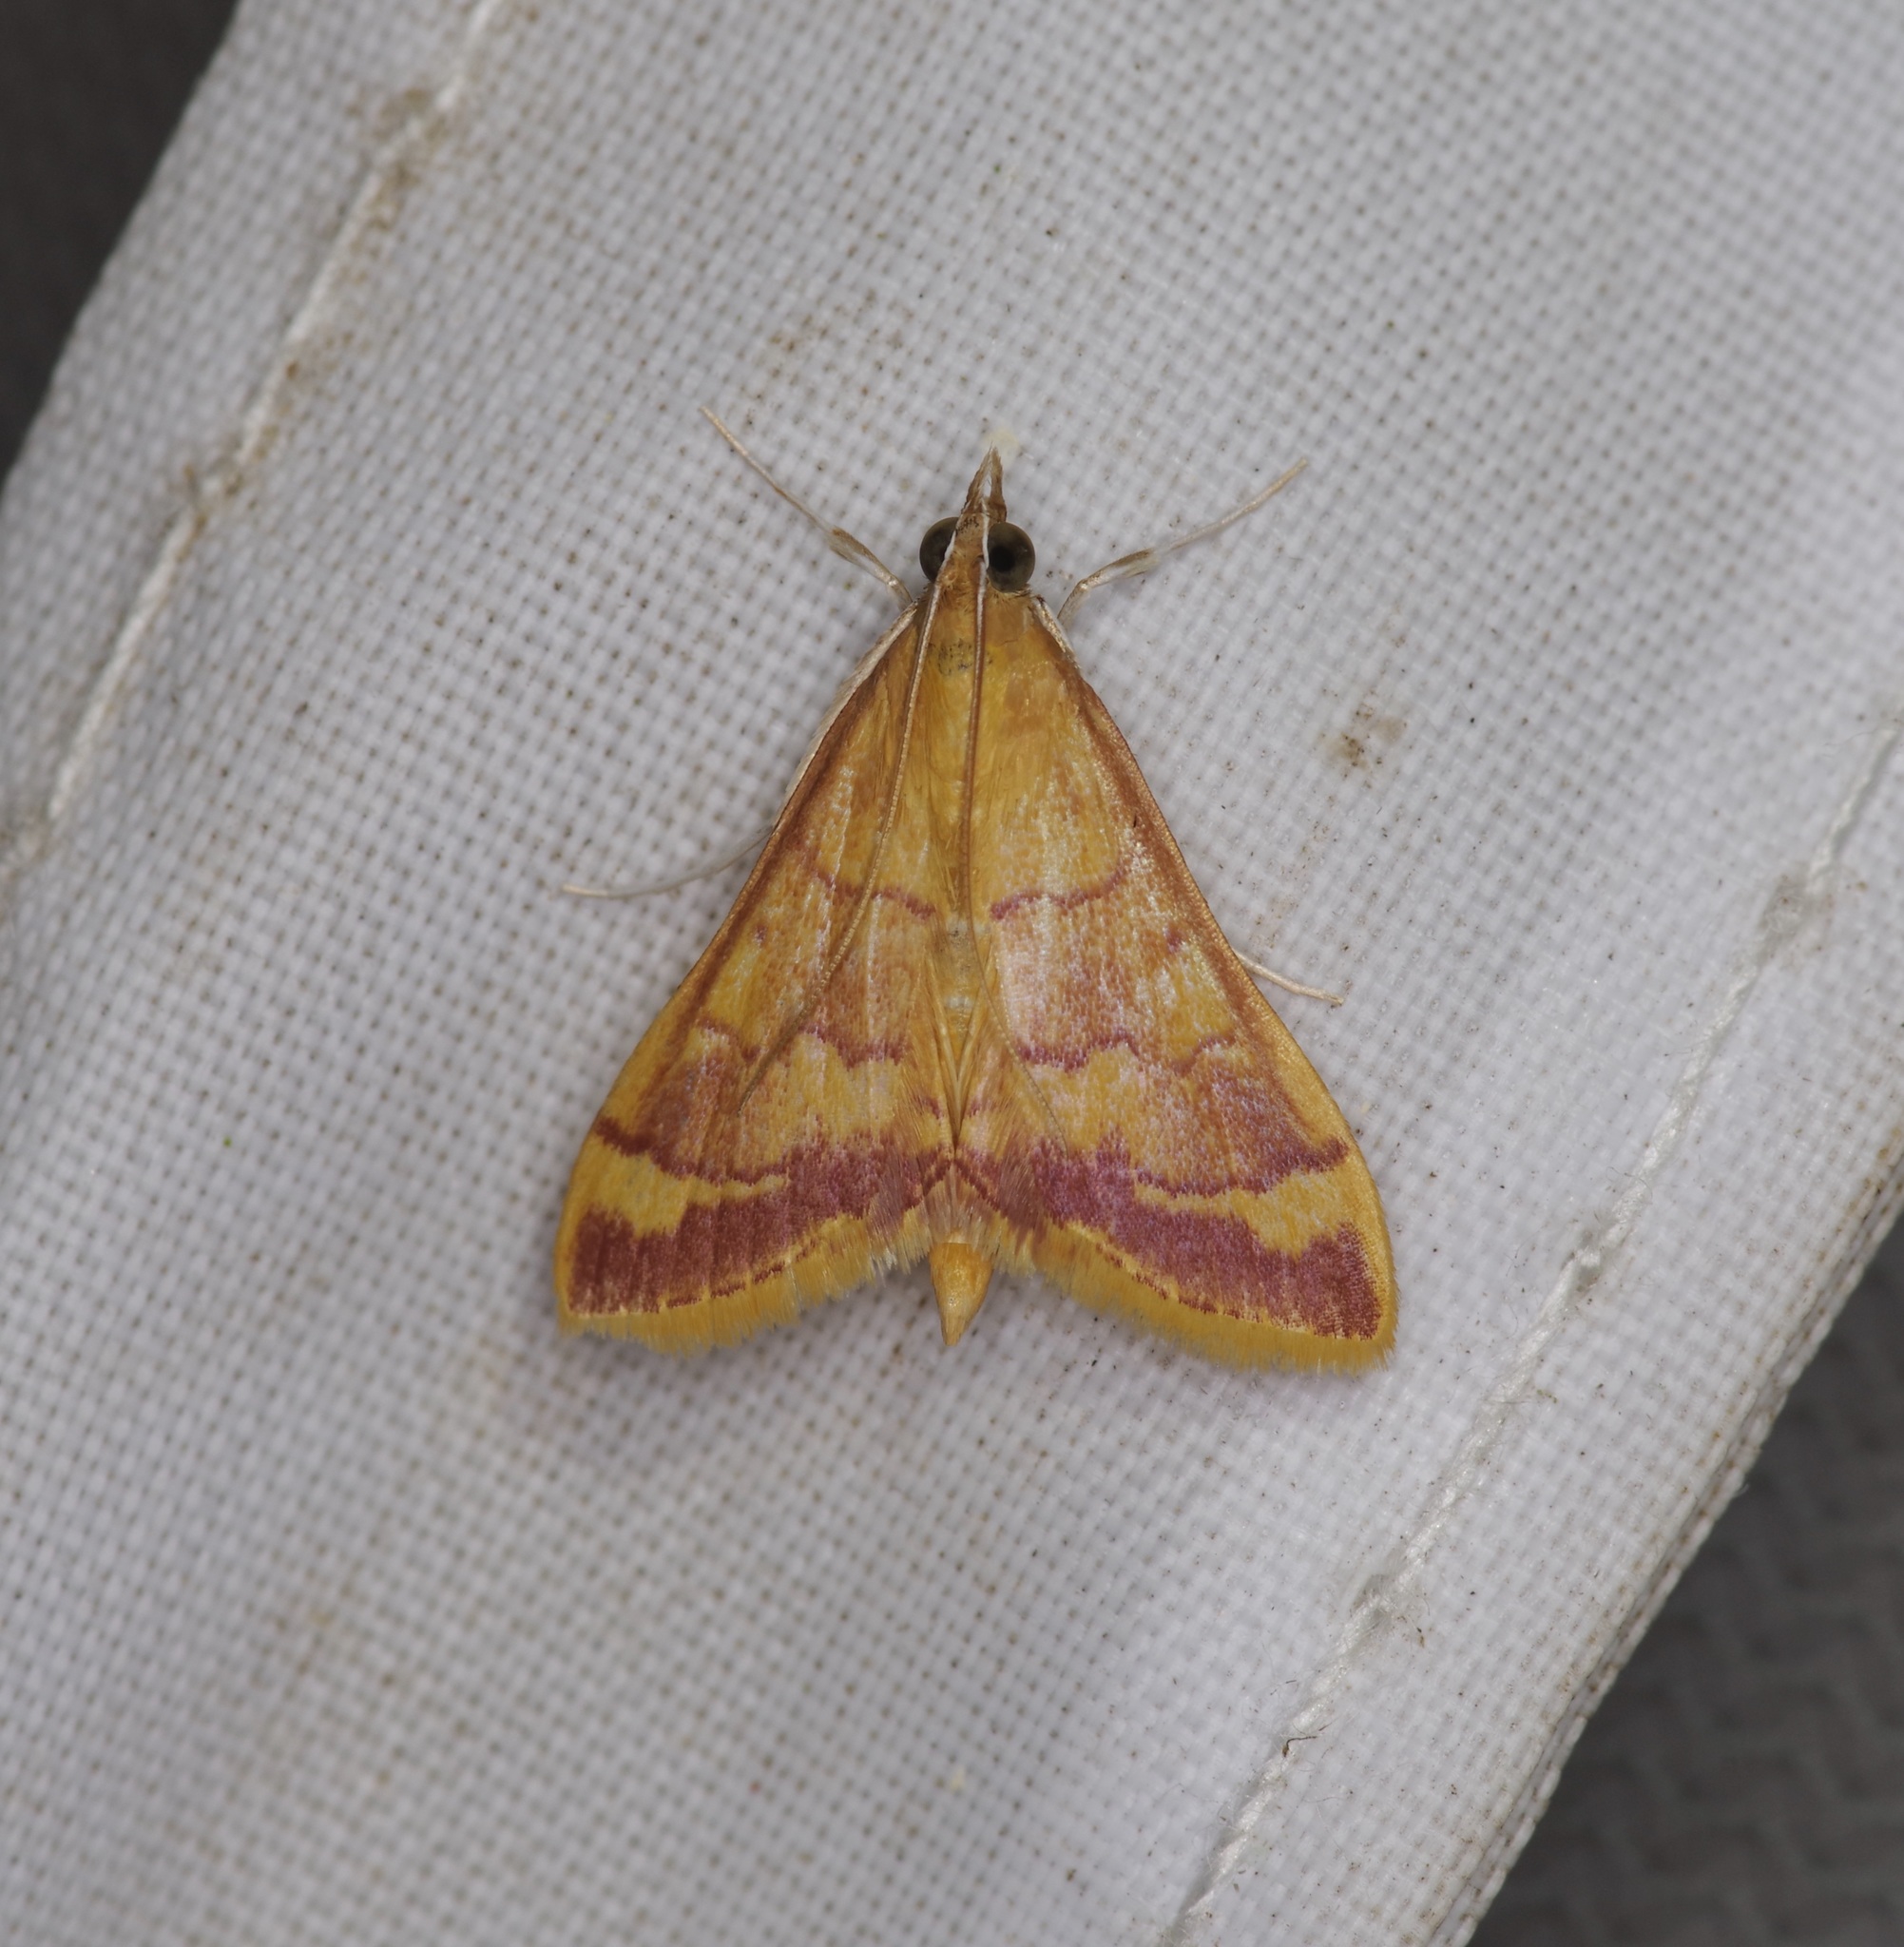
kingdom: Animalia
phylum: Arthropoda
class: Insecta
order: Lepidoptera
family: Crambidae
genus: Pyrausta
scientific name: Pyrausta pseudonythesalis
